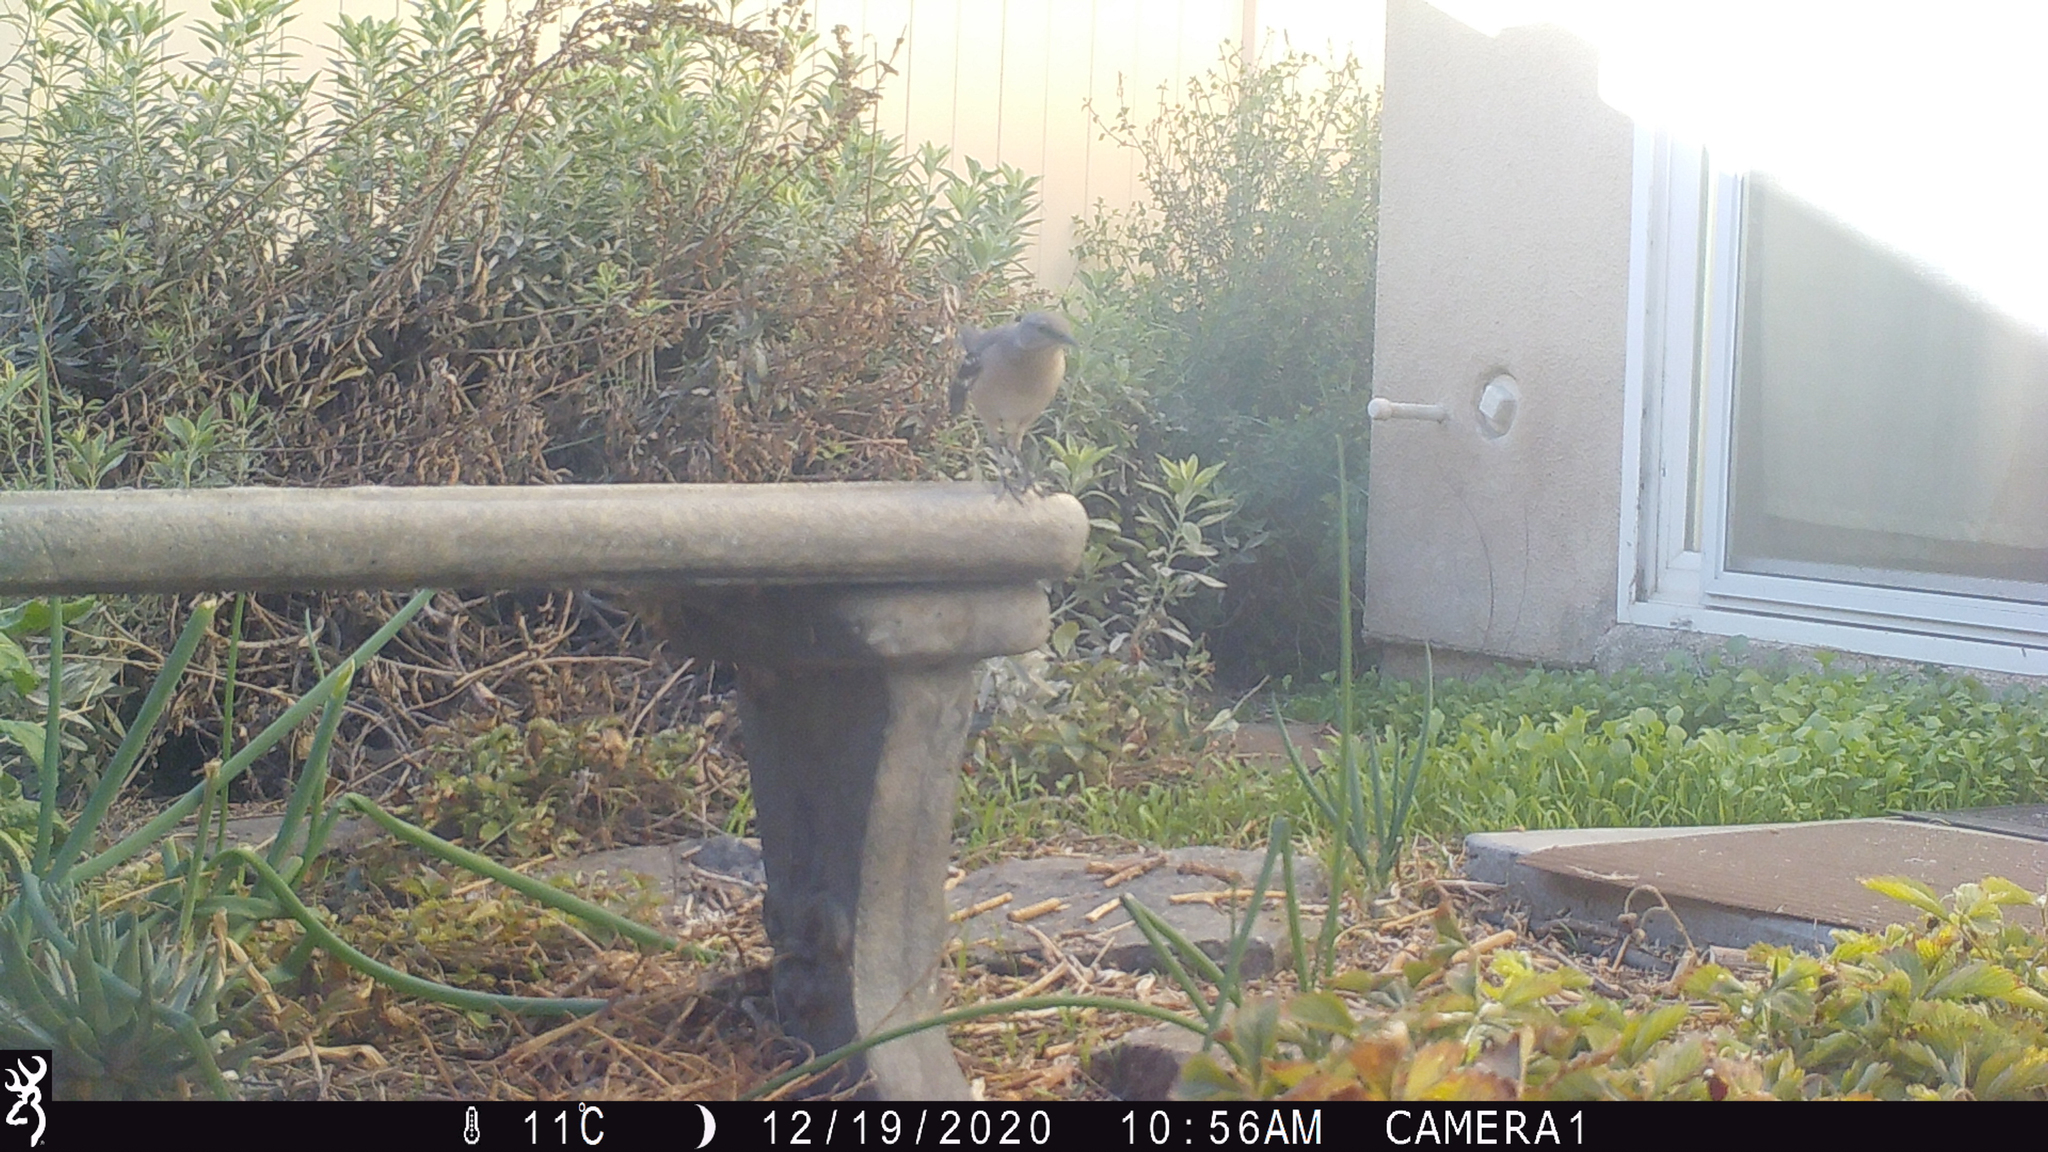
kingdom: Animalia
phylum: Chordata
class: Aves
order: Passeriformes
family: Mimidae
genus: Mimus
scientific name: Mimus polyglottos
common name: Northern mockingbird
